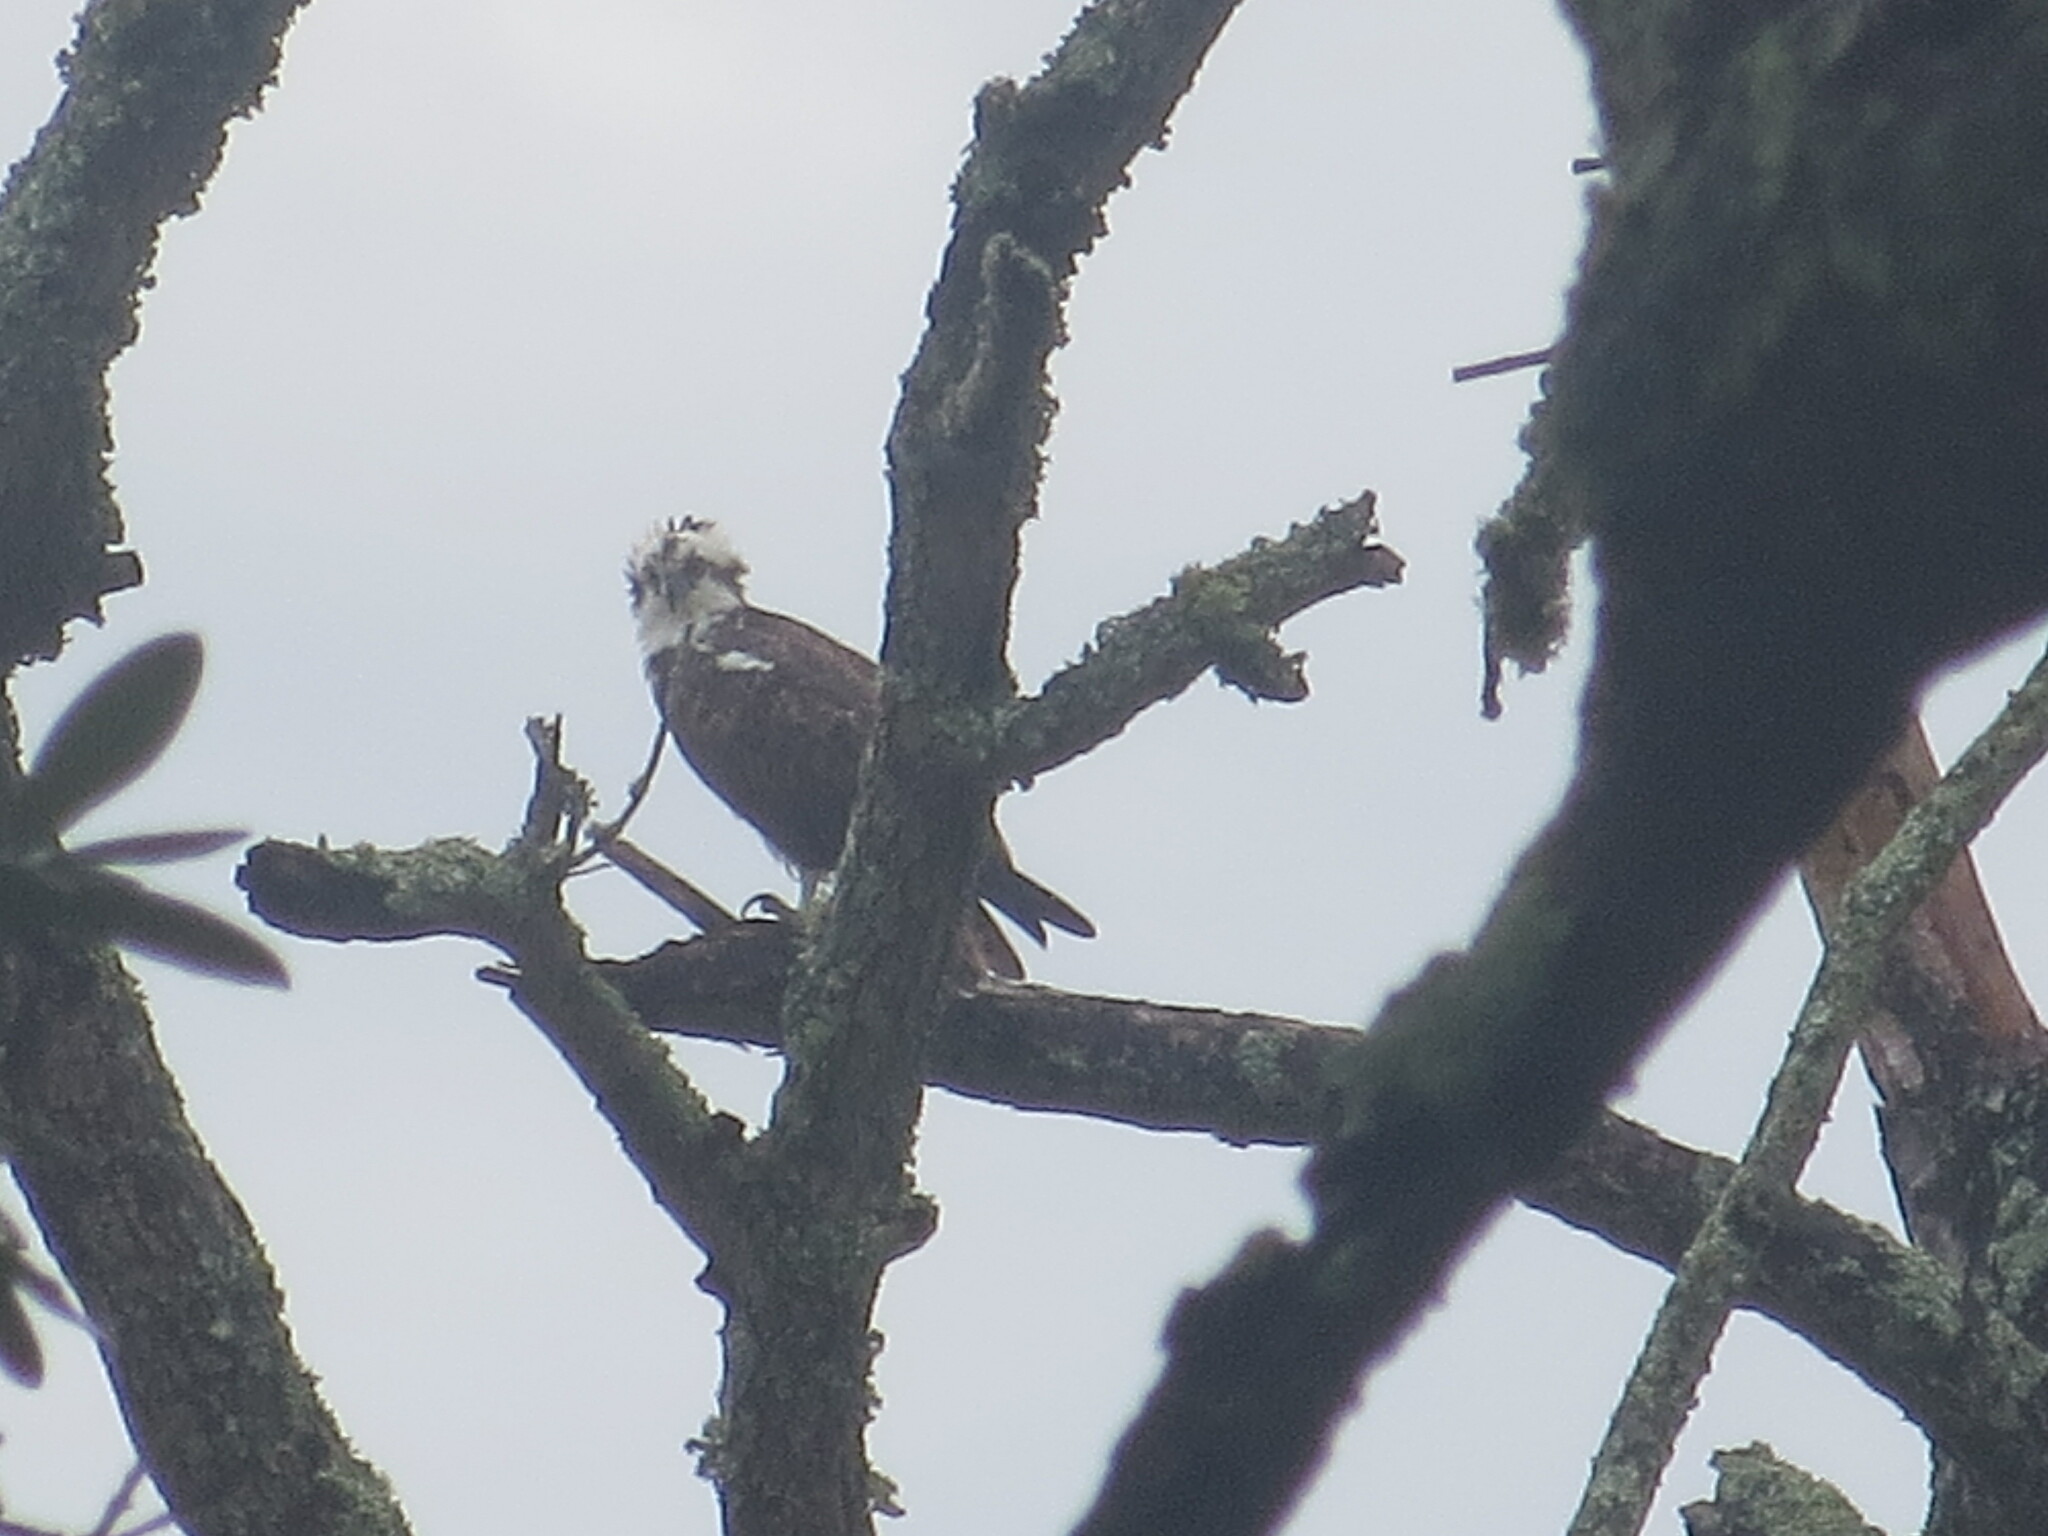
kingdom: Animalia
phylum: Chordata
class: Aves
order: Accipitriformes
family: Pandionidae
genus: Pandion
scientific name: Pandion haliaetus
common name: Osprey
